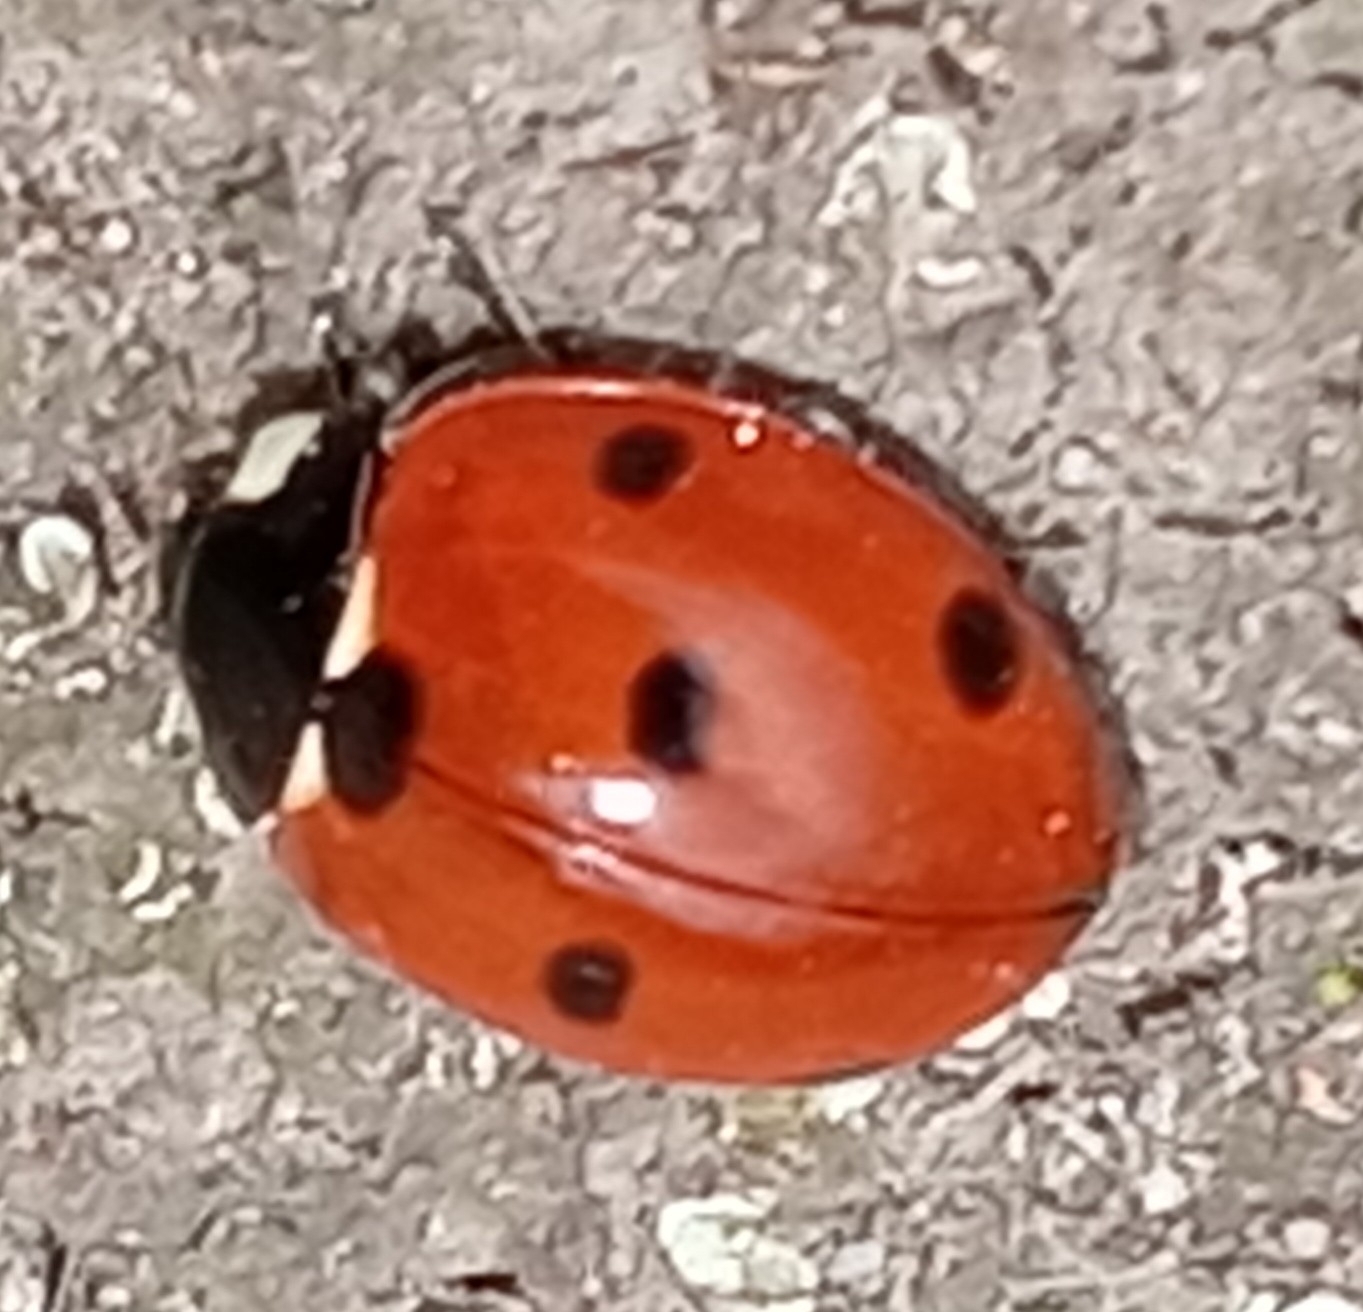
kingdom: Animalia
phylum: Arthropoda
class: Insecta
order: Coleoptera
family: Coccinellidae
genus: Coccinella
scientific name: Coccinella septempunctata
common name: Sevenspotted lady beetle
